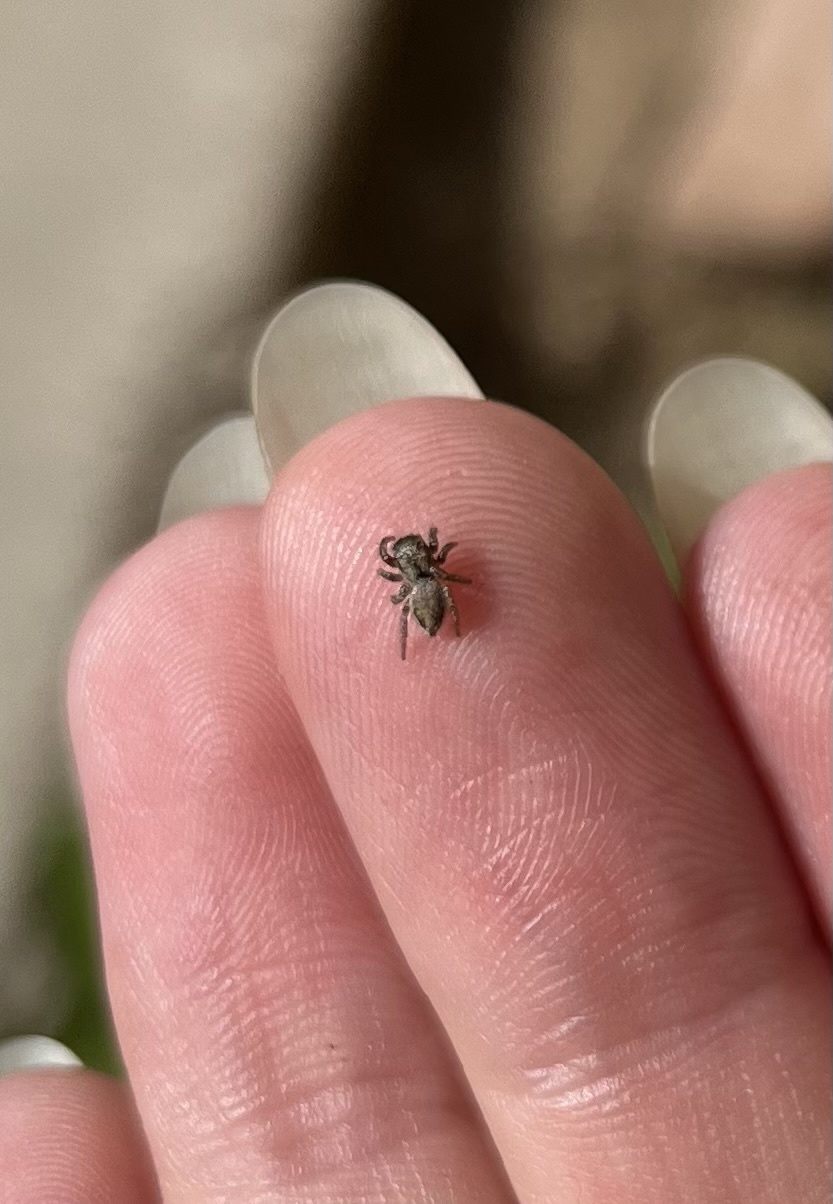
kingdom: Animalia
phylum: Arthropoda
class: Arachnida
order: Araneae
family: Salticidae
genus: Habronattus
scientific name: Habronattus pyrrithrix
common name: Jumping spider
